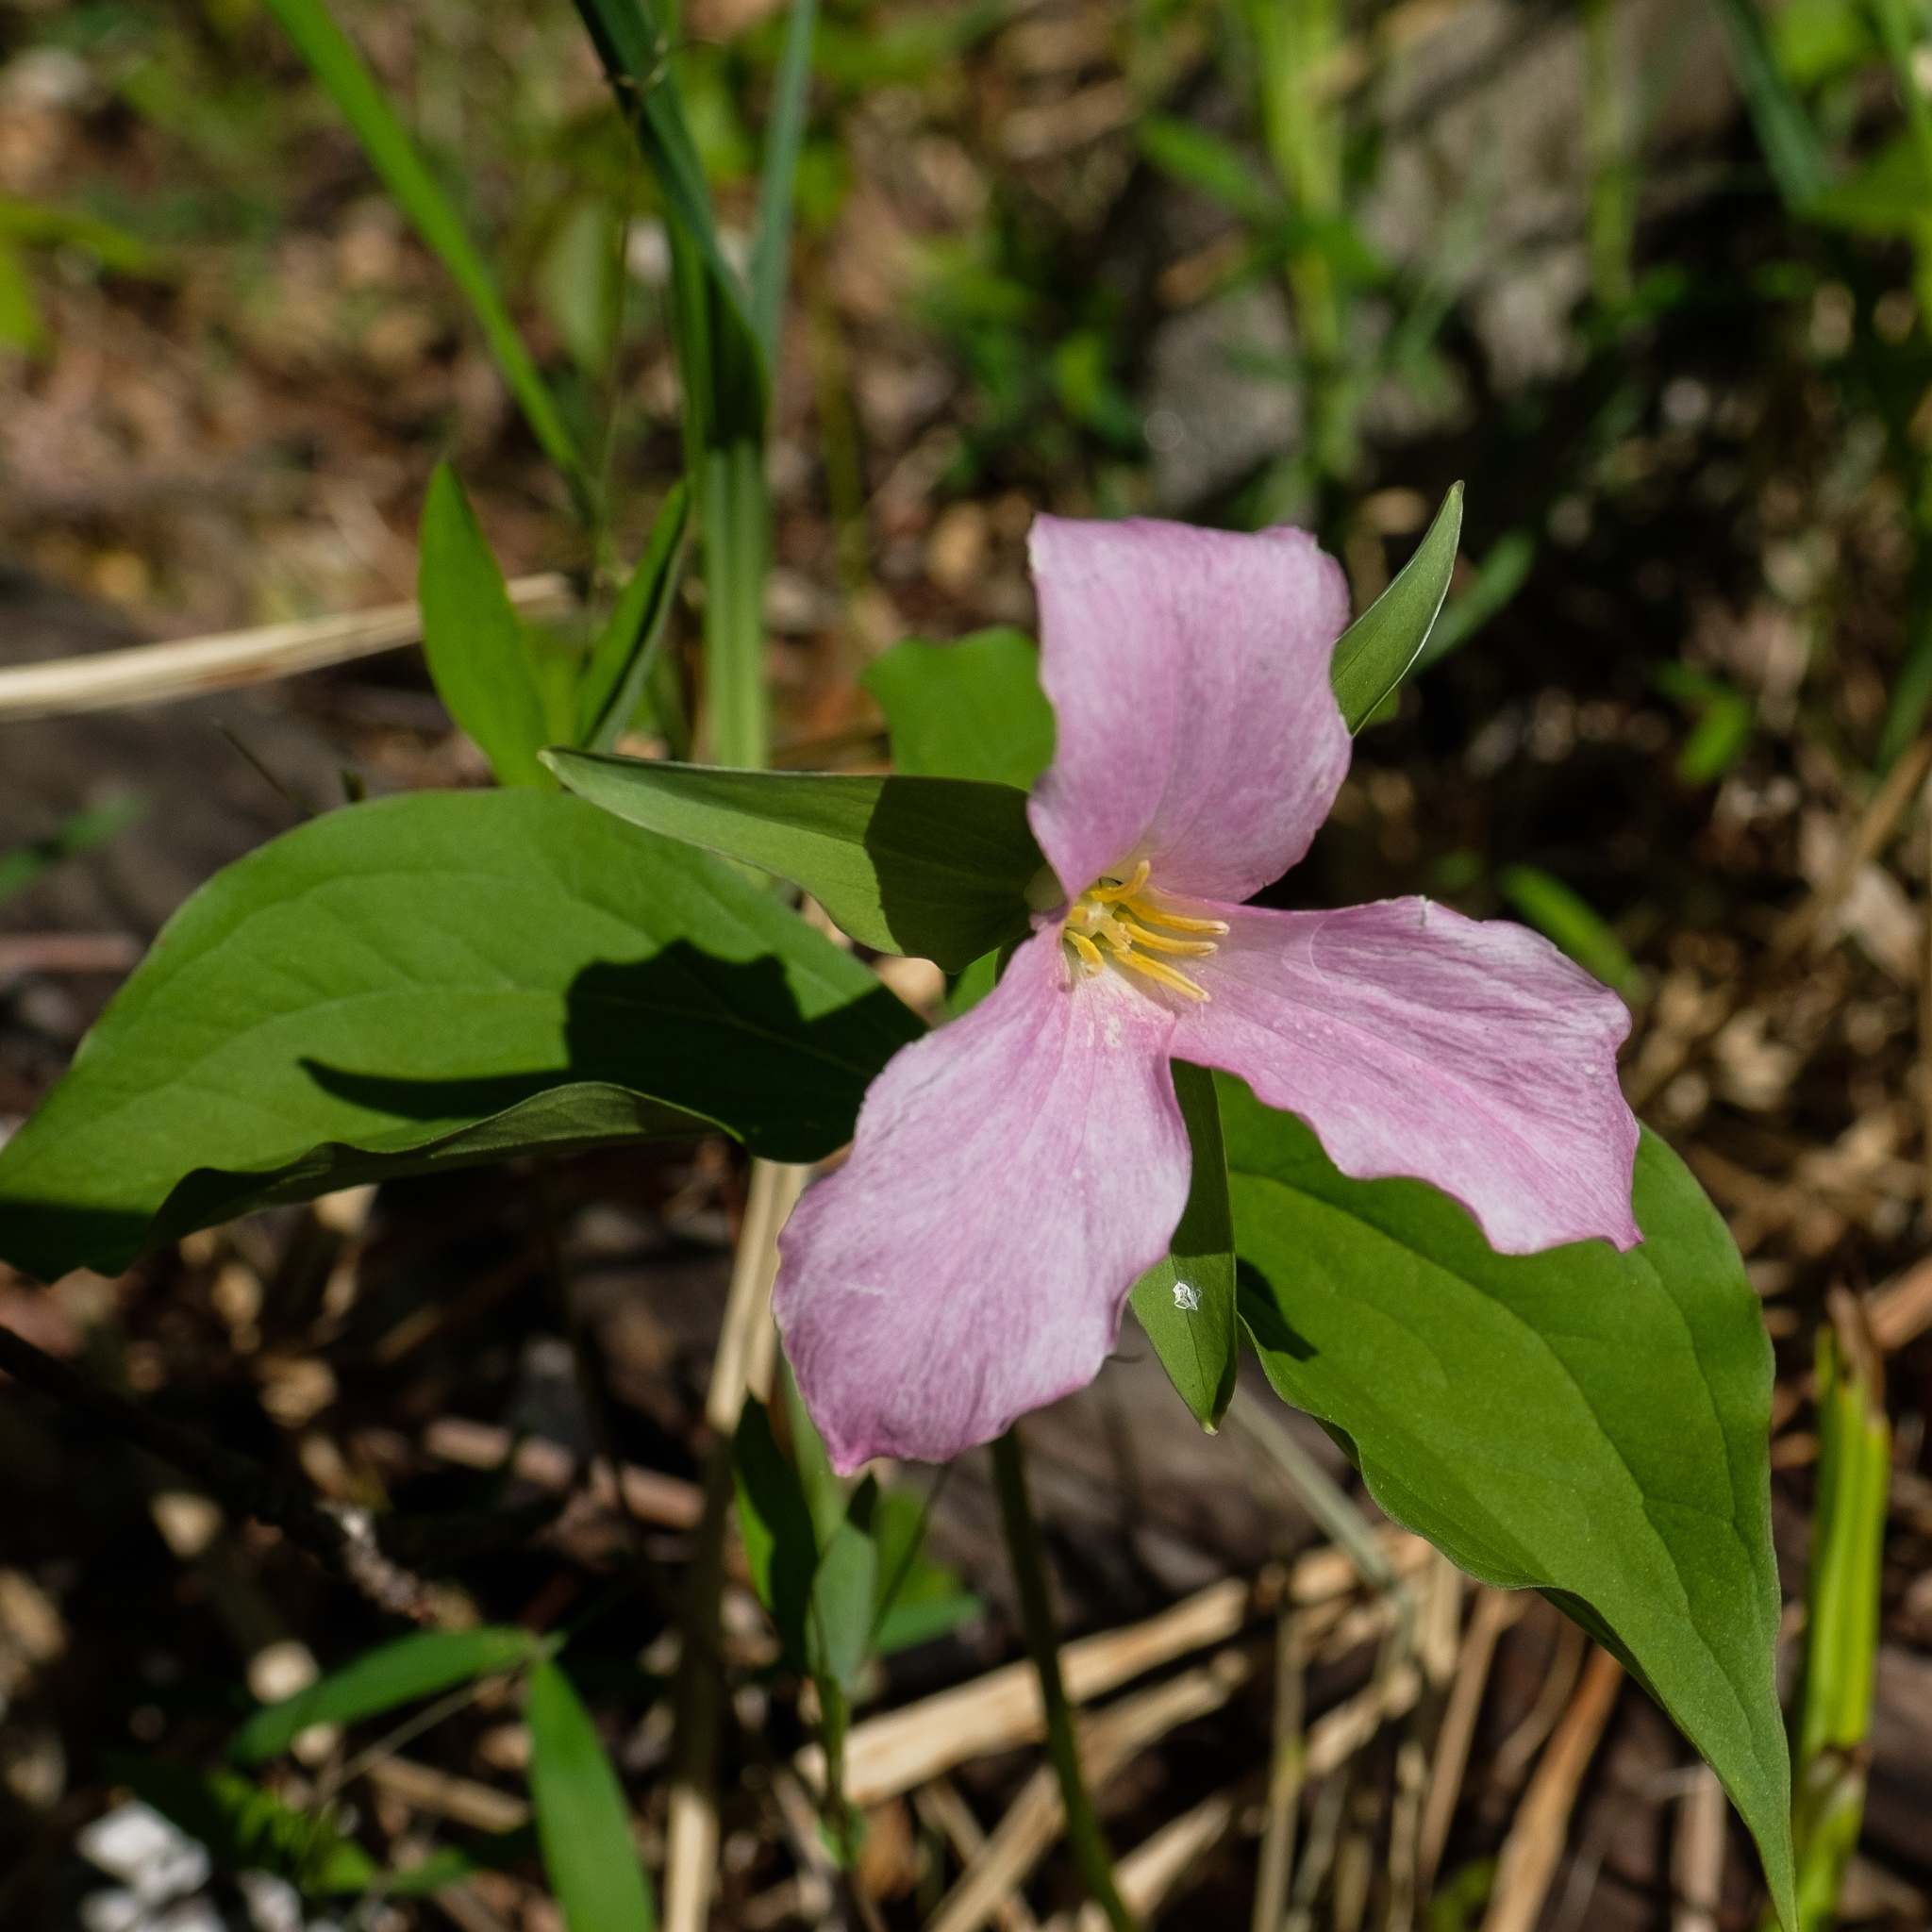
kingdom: Plantae
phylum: Tracheophyta
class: Liliopsida
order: Liliales
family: Melanthiaceae
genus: Trillium
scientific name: Trillium grandiflorum
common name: Great white trillium
